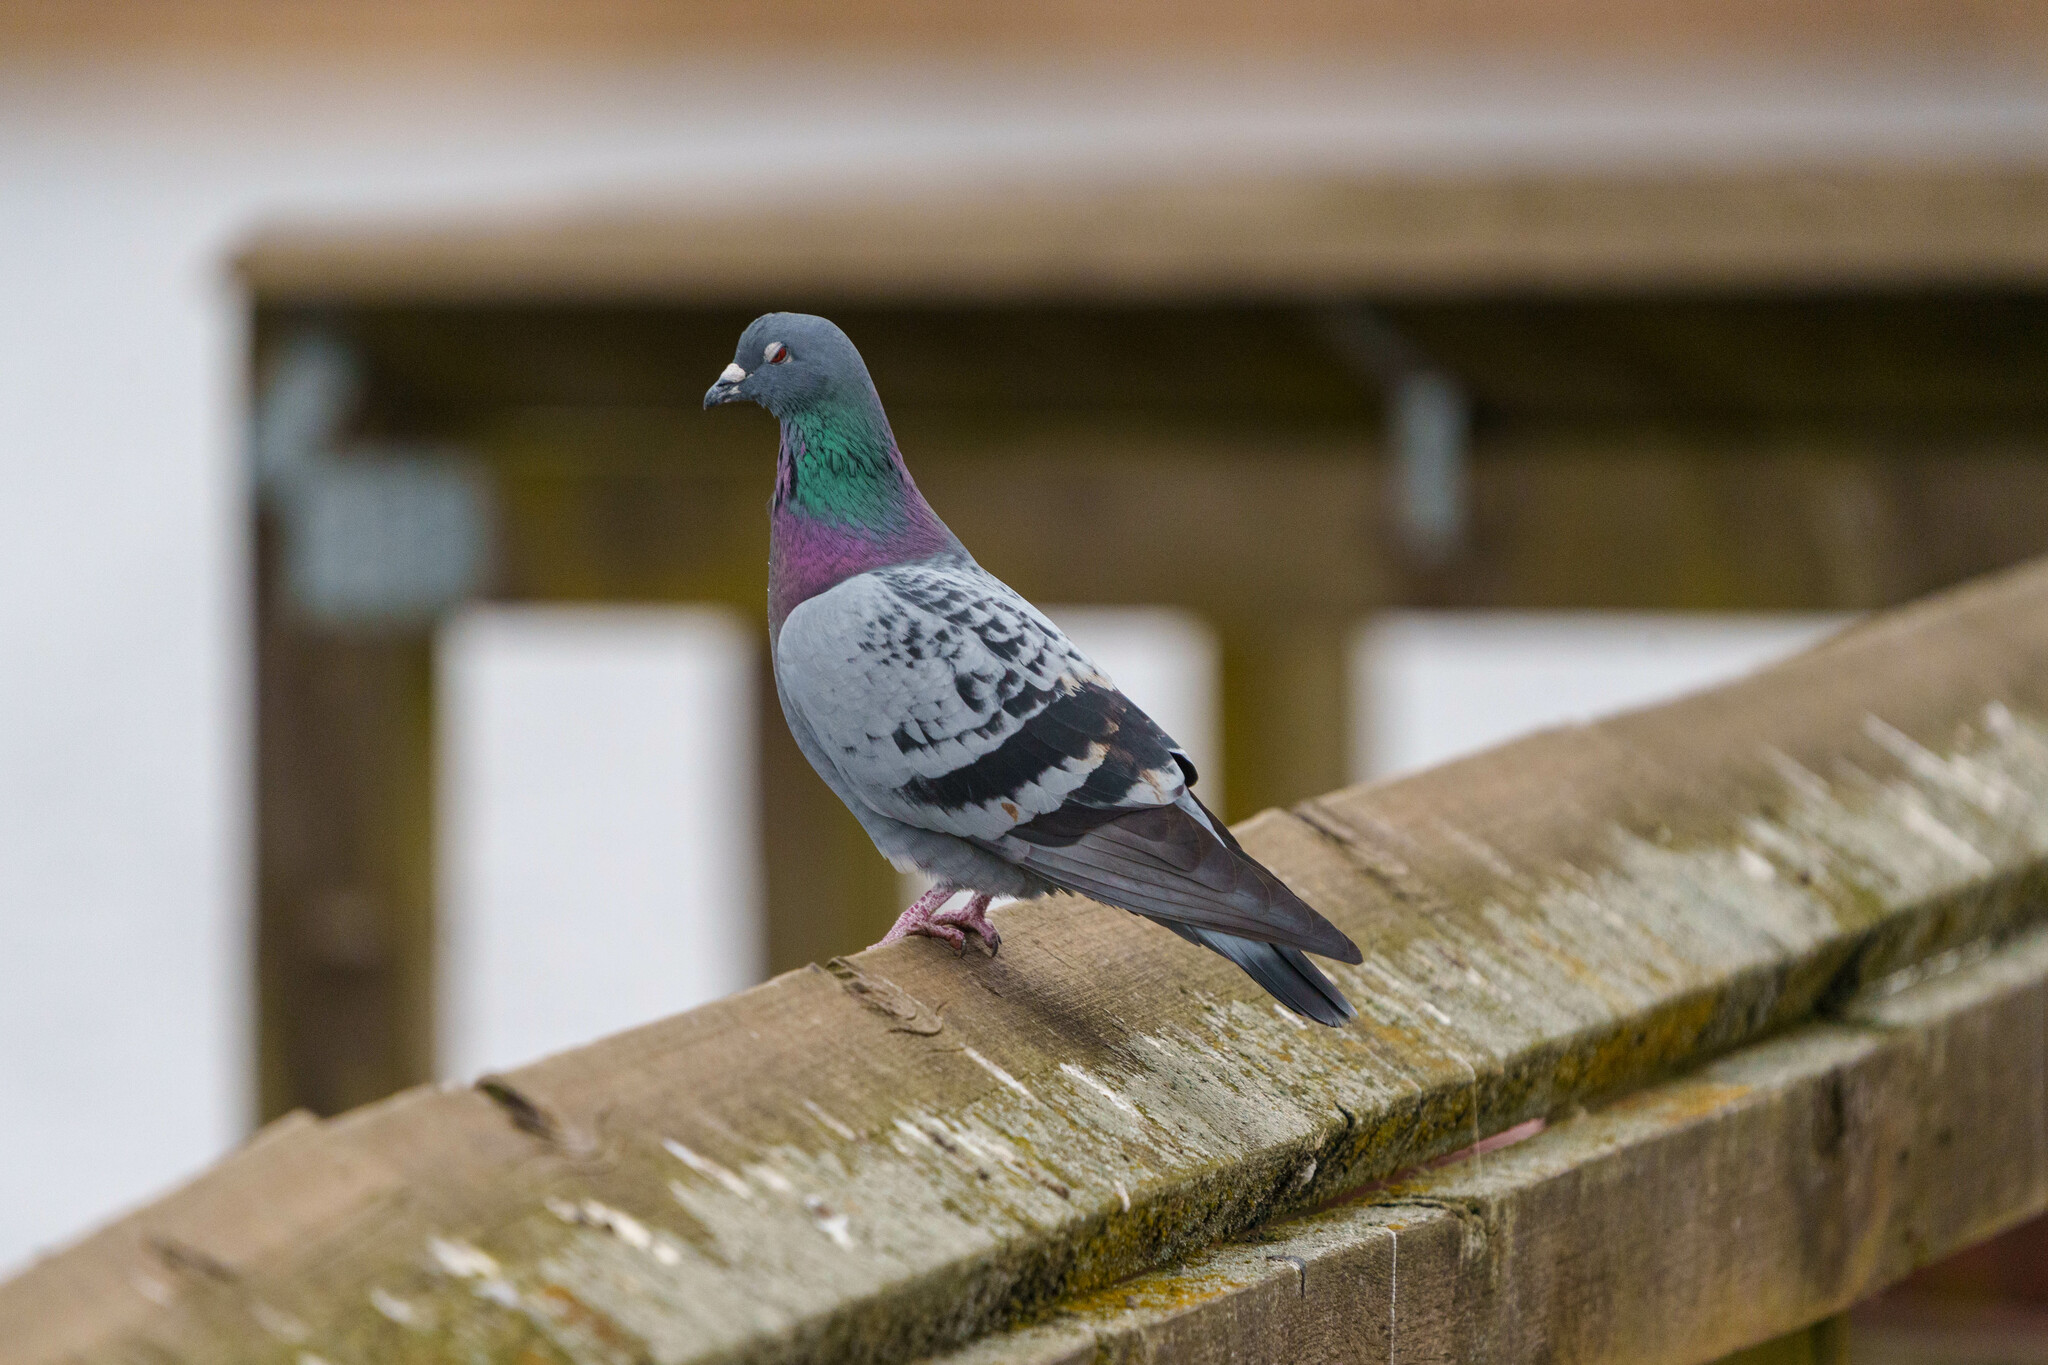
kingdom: Animalia
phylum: Chordata
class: Aves
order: Columbiformes
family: Columbidae
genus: Columba
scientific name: Columba livia
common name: Rock pigeon
